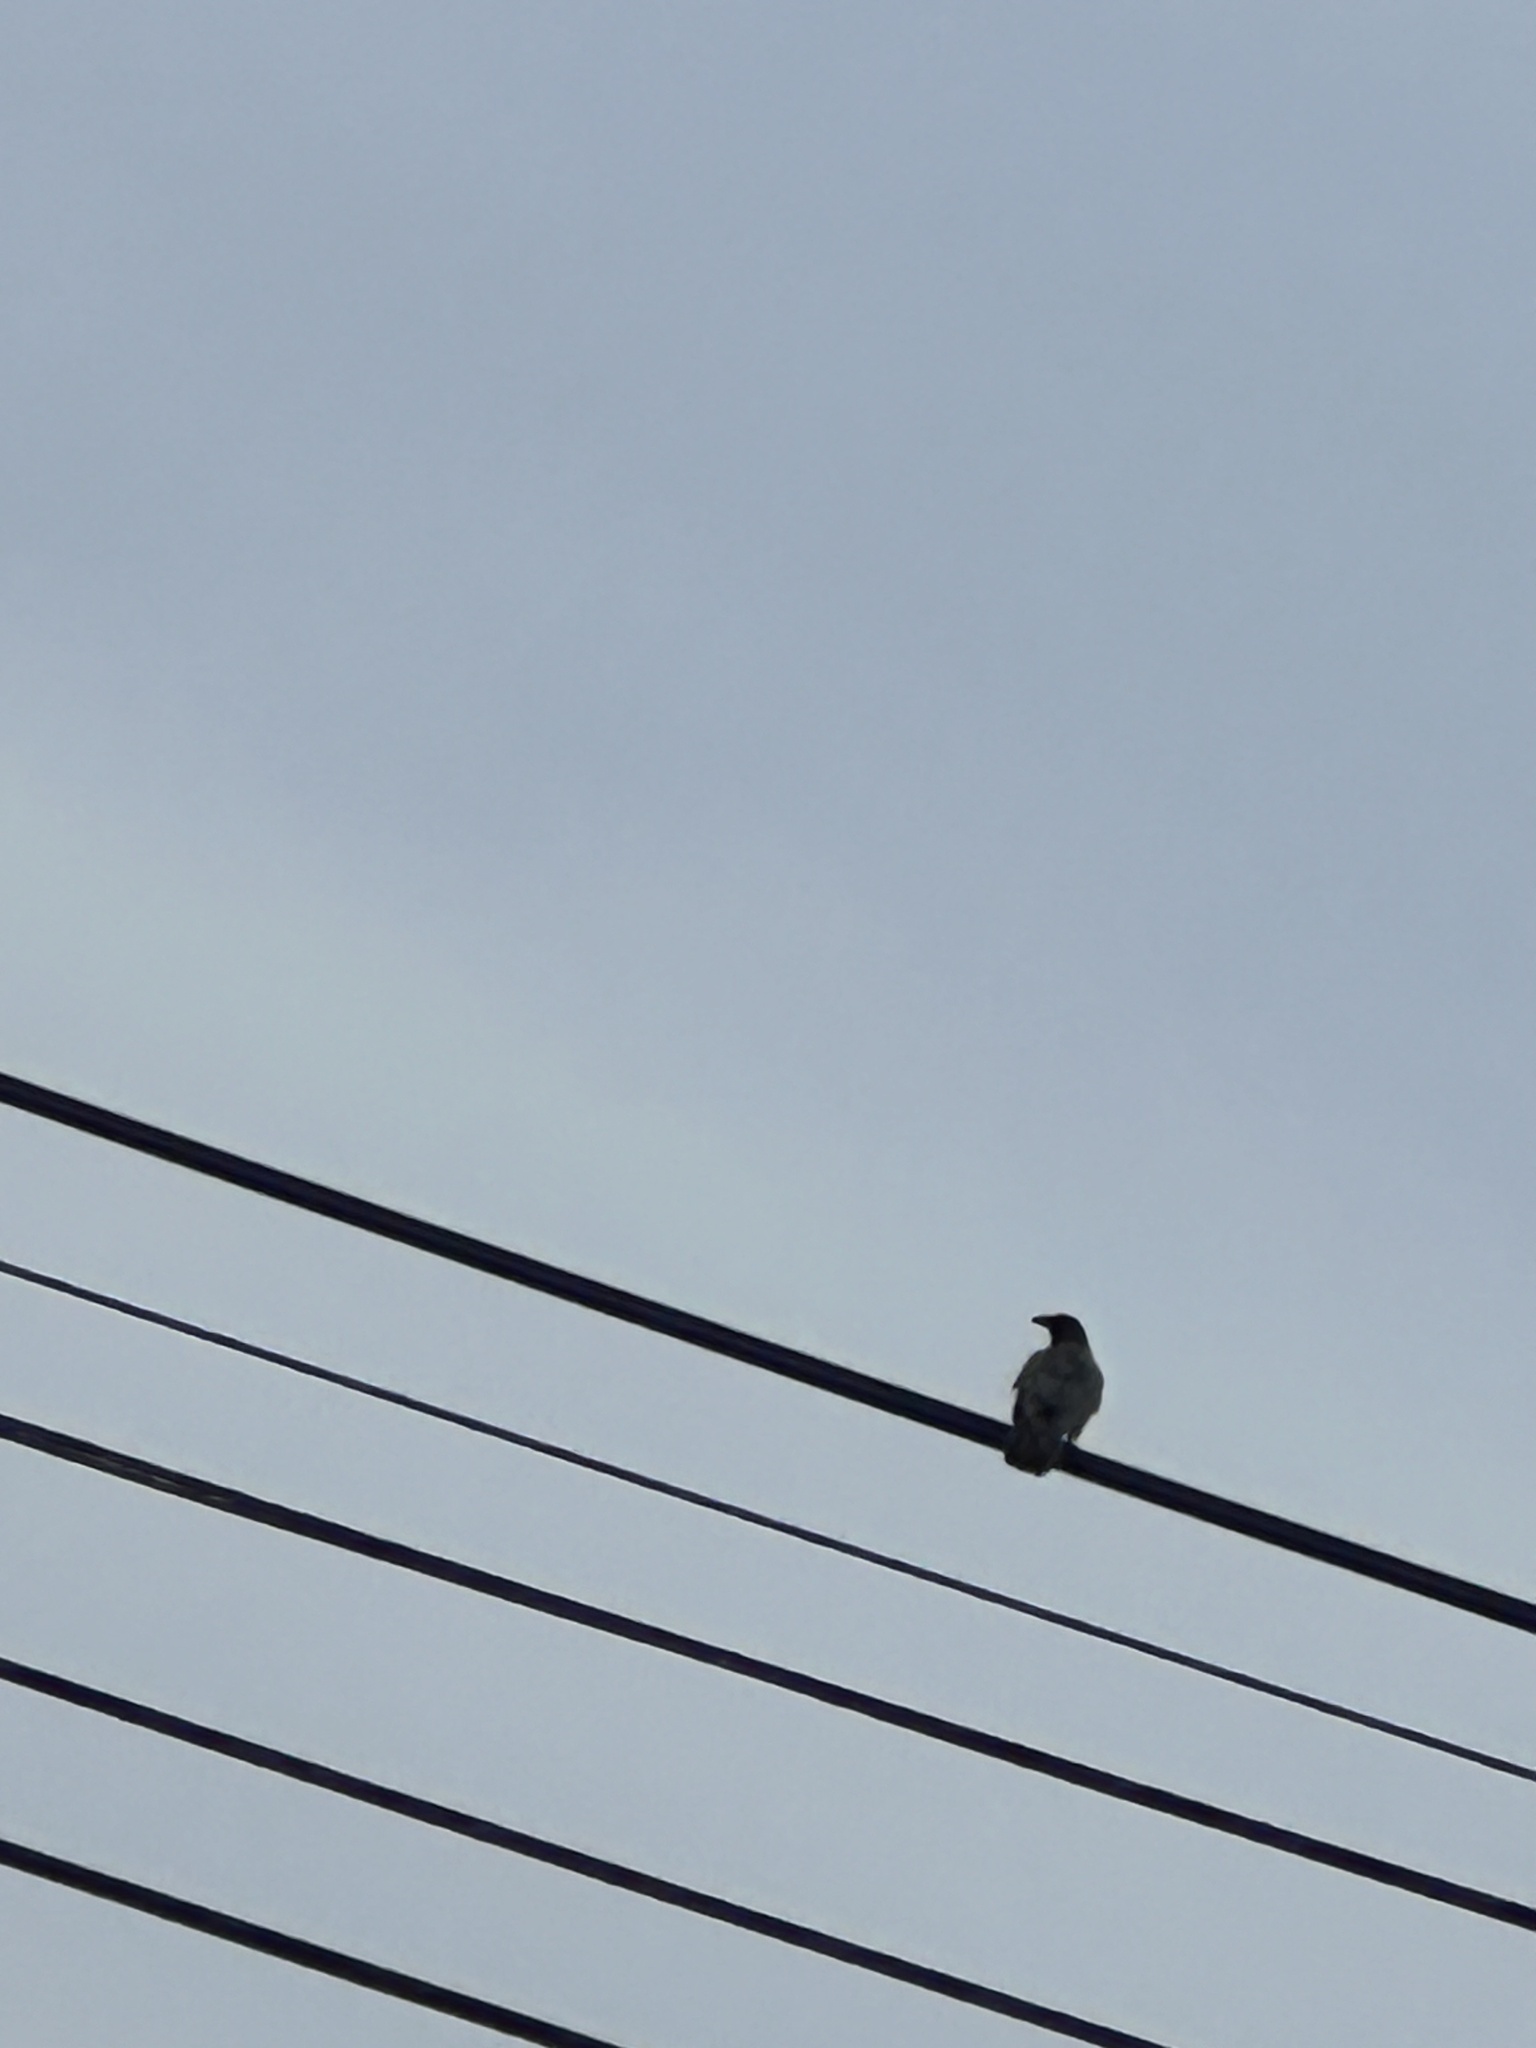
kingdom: Animalia
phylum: Chordata
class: Aves
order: Passeriformes
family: Corvidae
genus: Corvus
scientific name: Corvus brachyrhynchos
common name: American crow
